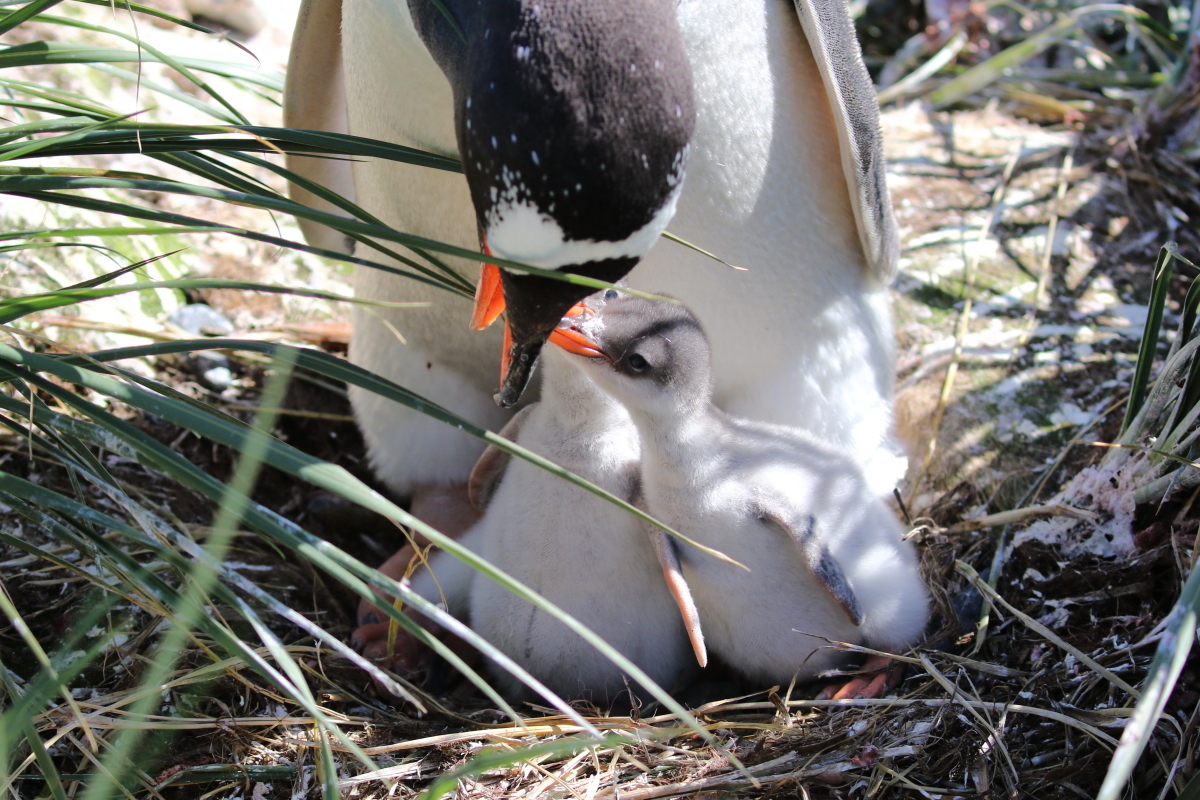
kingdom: Animalia
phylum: Chordata
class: Aves
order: Sphenisciformes
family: Spheniscidae
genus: Pygoscelis
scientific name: Pygoscelis papua
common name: Gentoo penguin
